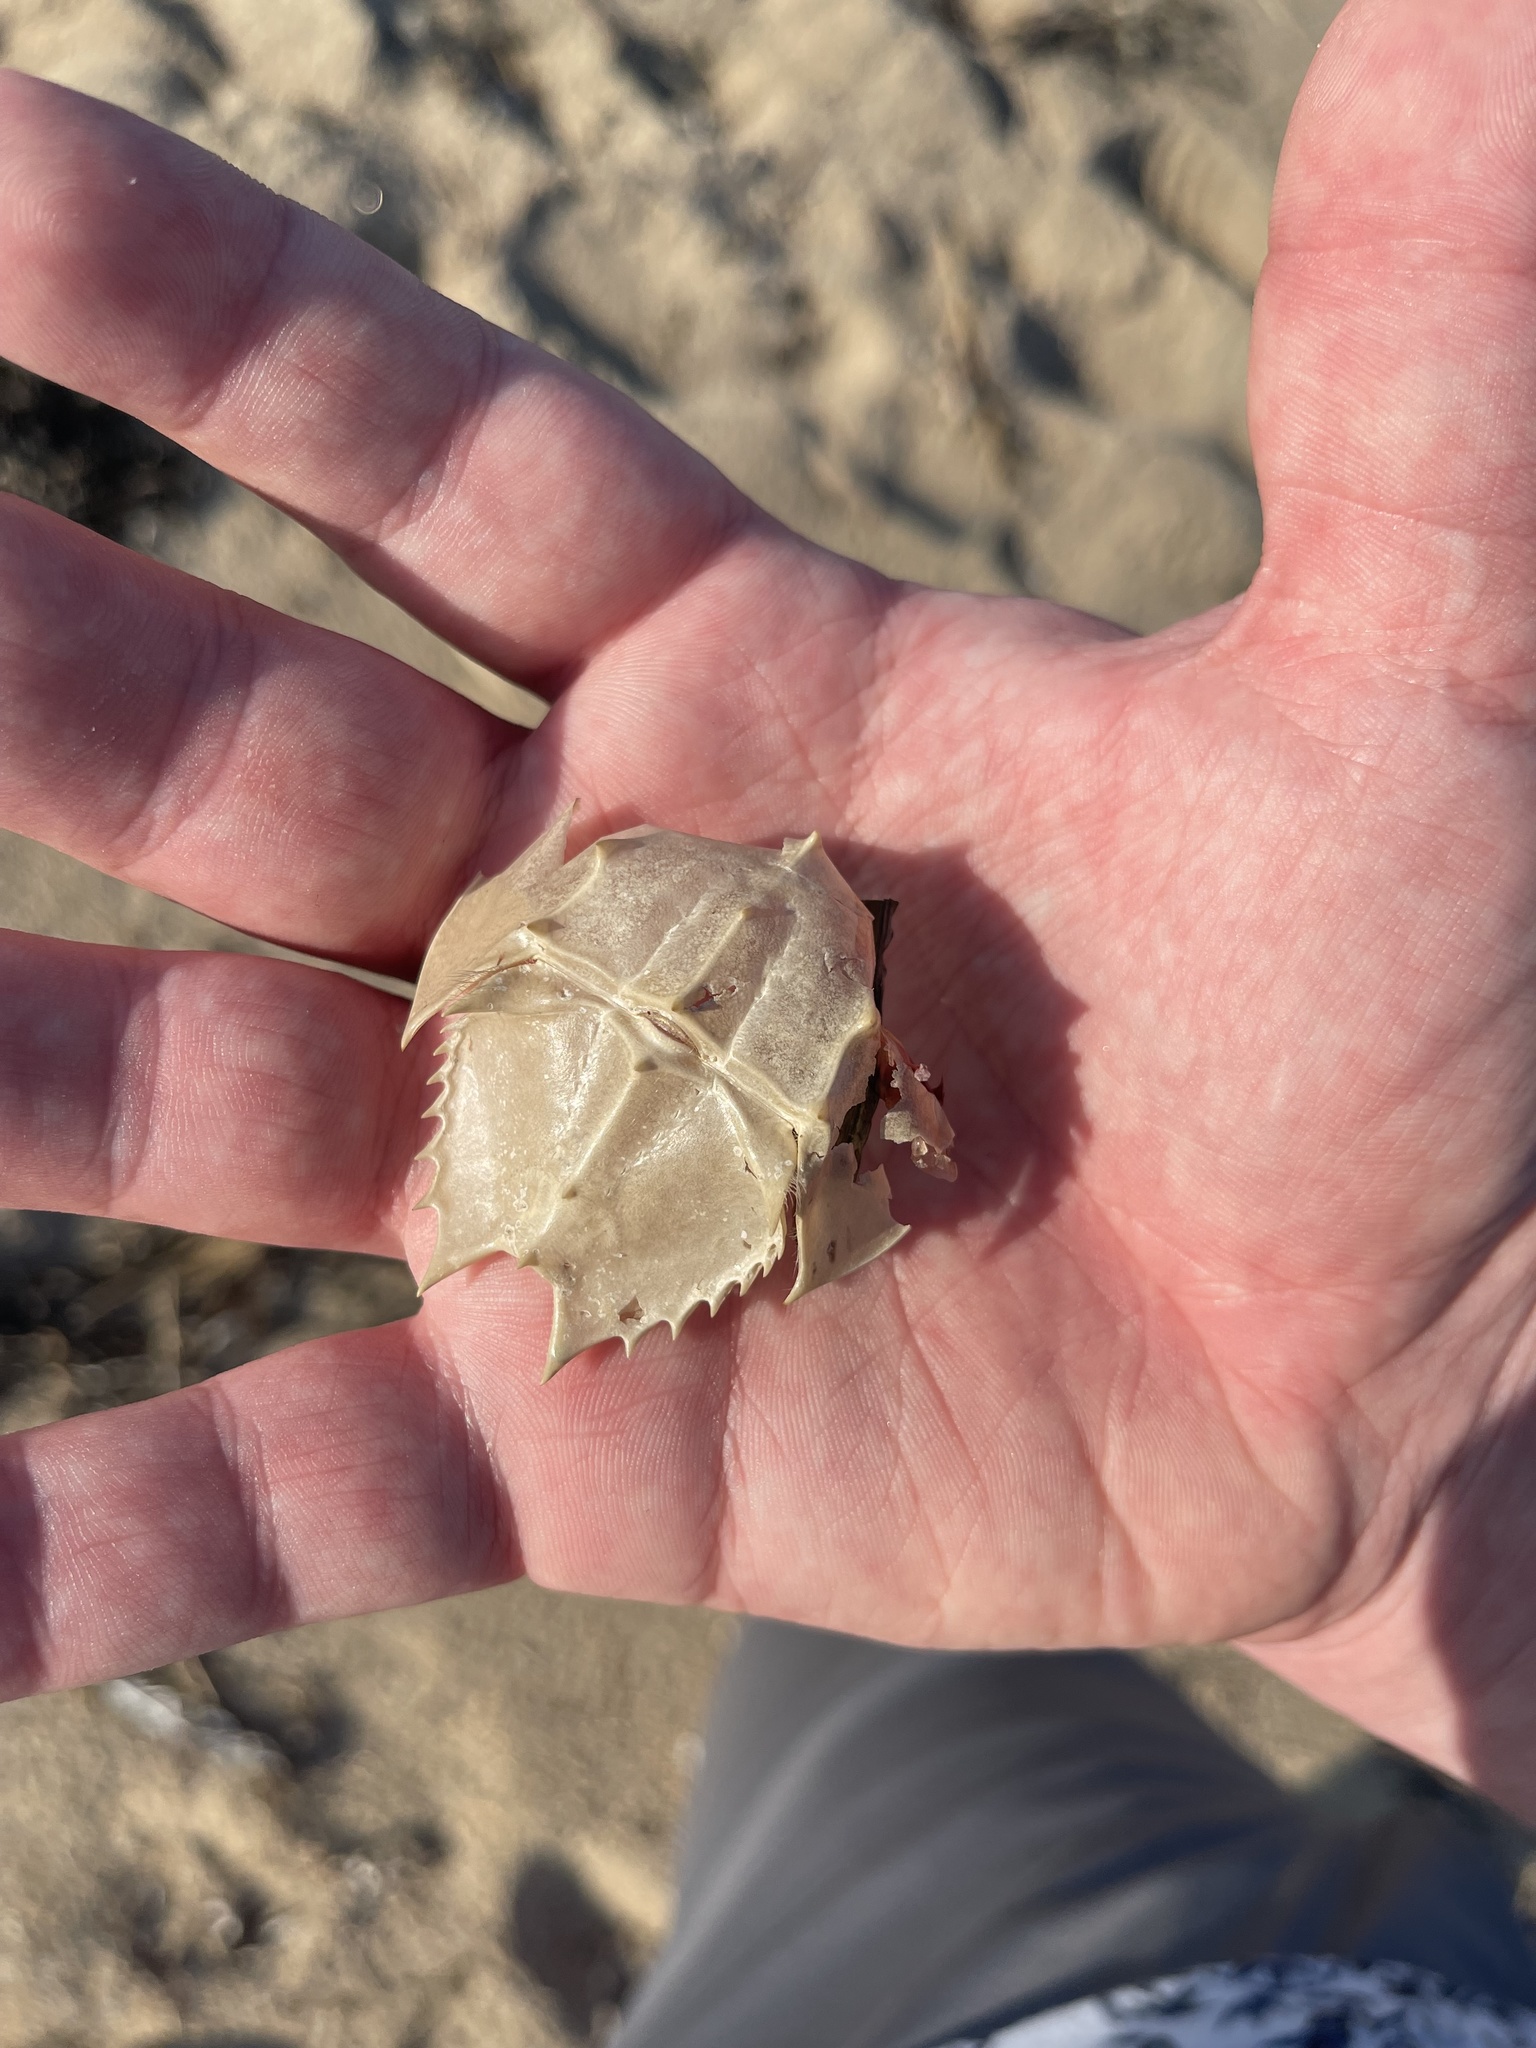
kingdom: Animalia
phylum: Arthropoda
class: Merostomata
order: Xiphosurida
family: Limulidae
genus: Limulus
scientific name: Limulus polyphemus
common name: Horseshoe crab
